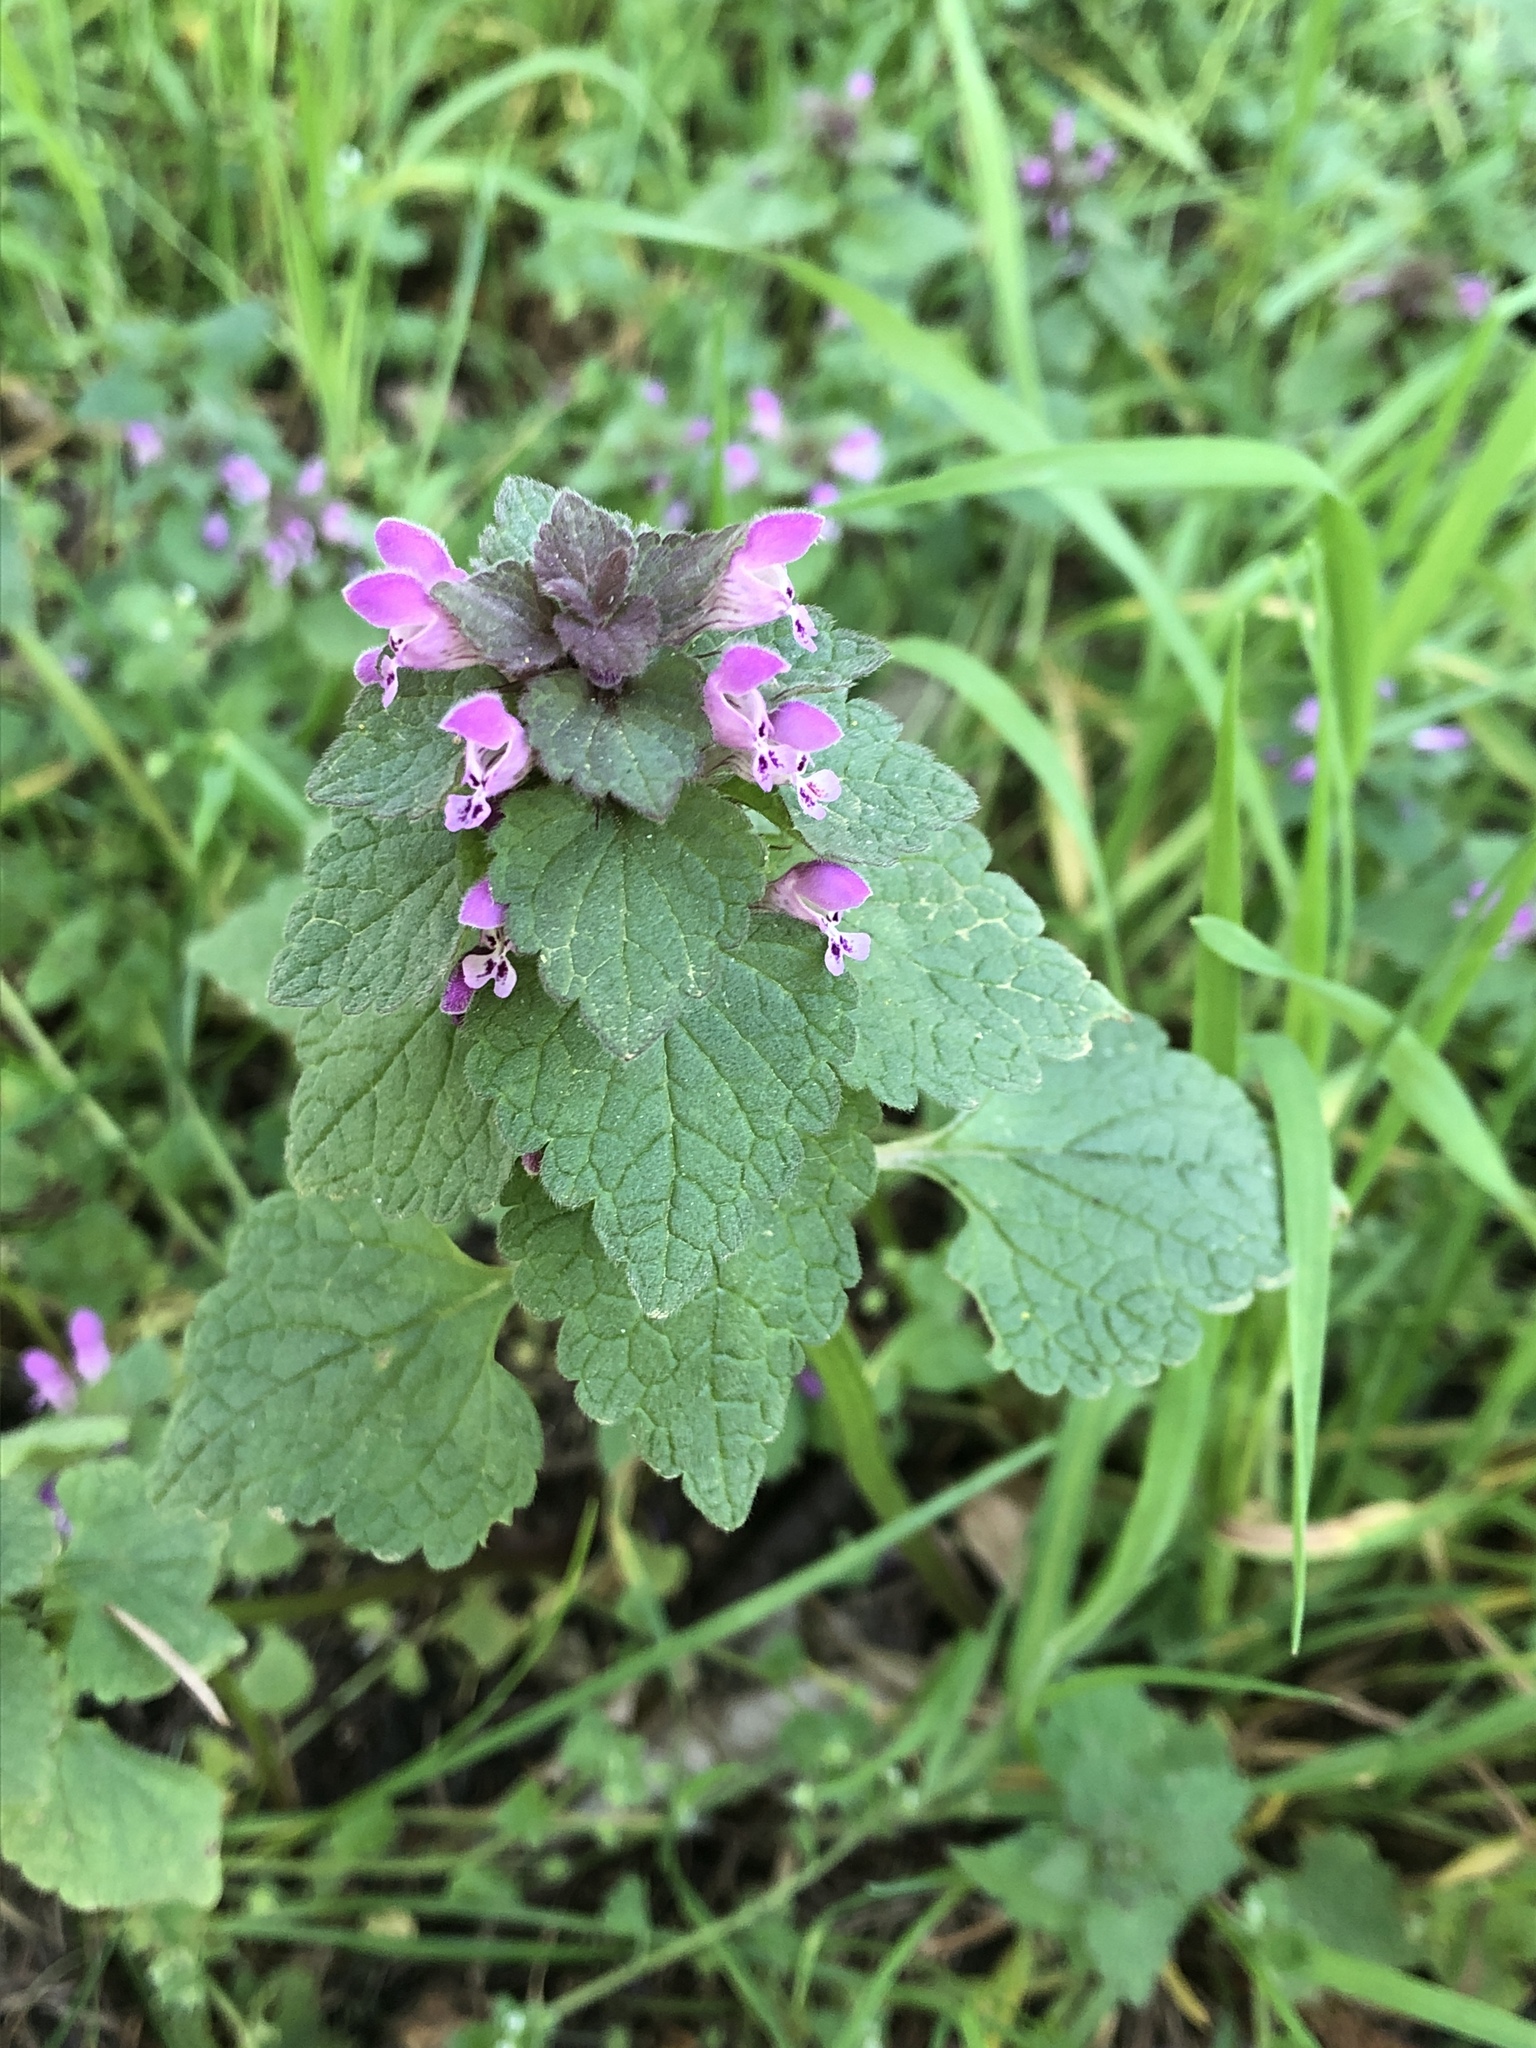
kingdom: Plantae
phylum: Tracheophyta
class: Magnoliopsida
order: Lamiales
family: Lamiaceae
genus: Lamium
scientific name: Lamium purpureum
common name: Red dead-nettle
